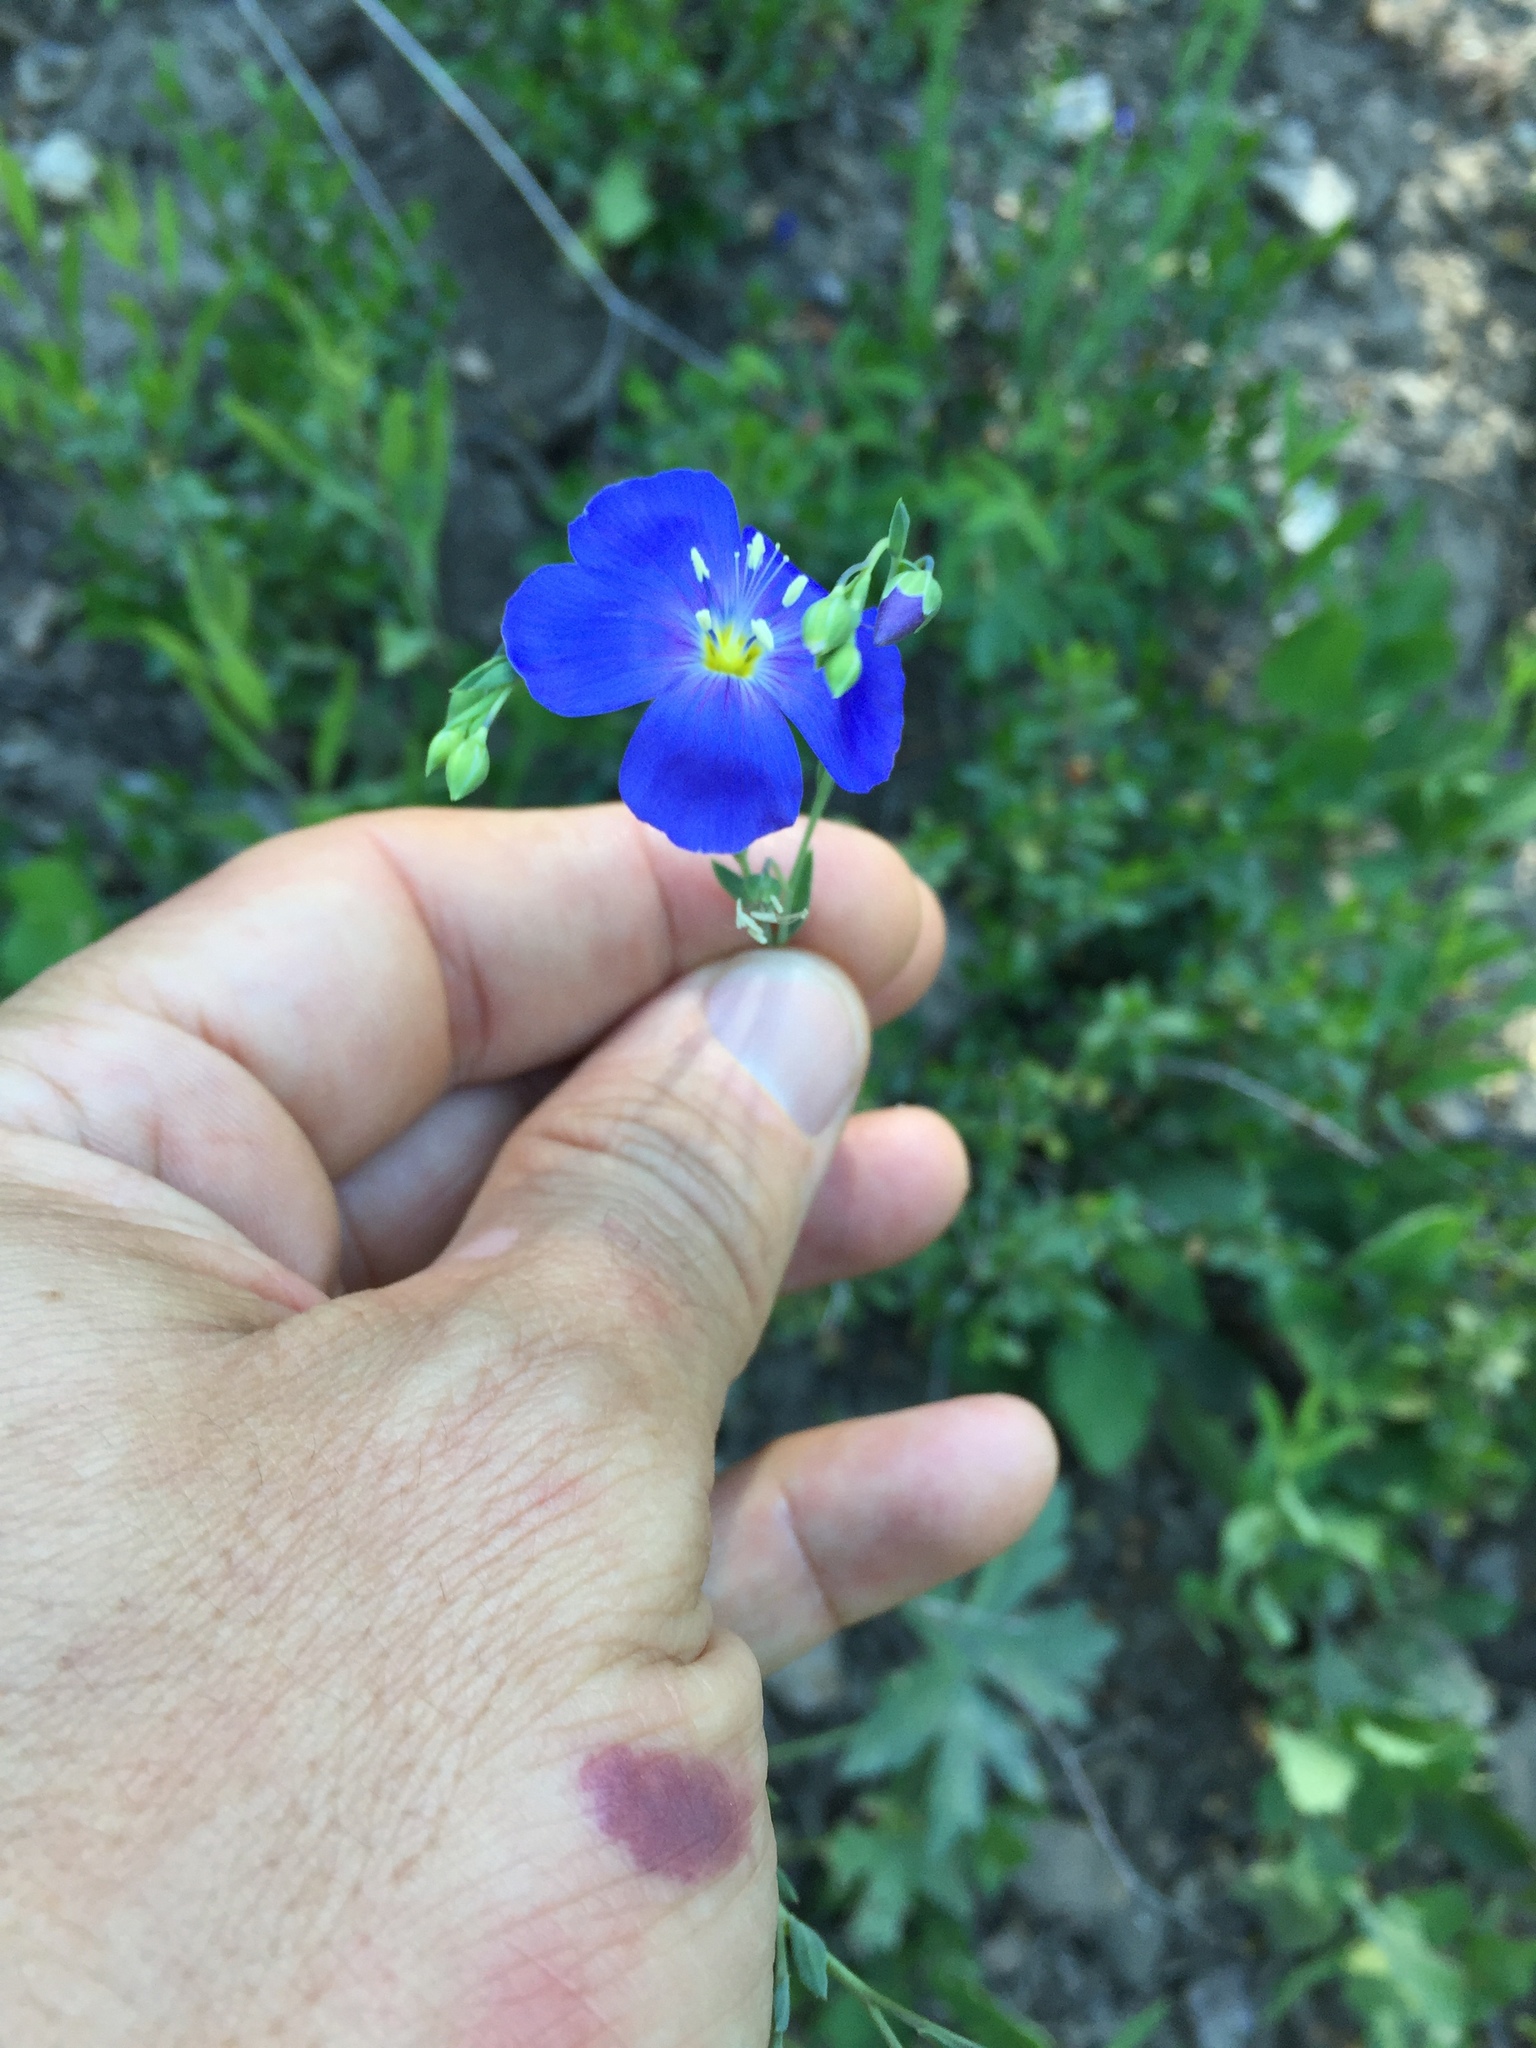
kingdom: Plantae
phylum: Tracheophyta
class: Magnoliopsida
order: Malpighiales
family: Linaceae
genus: Linum
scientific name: Linum lewisii
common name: Prairie flax
